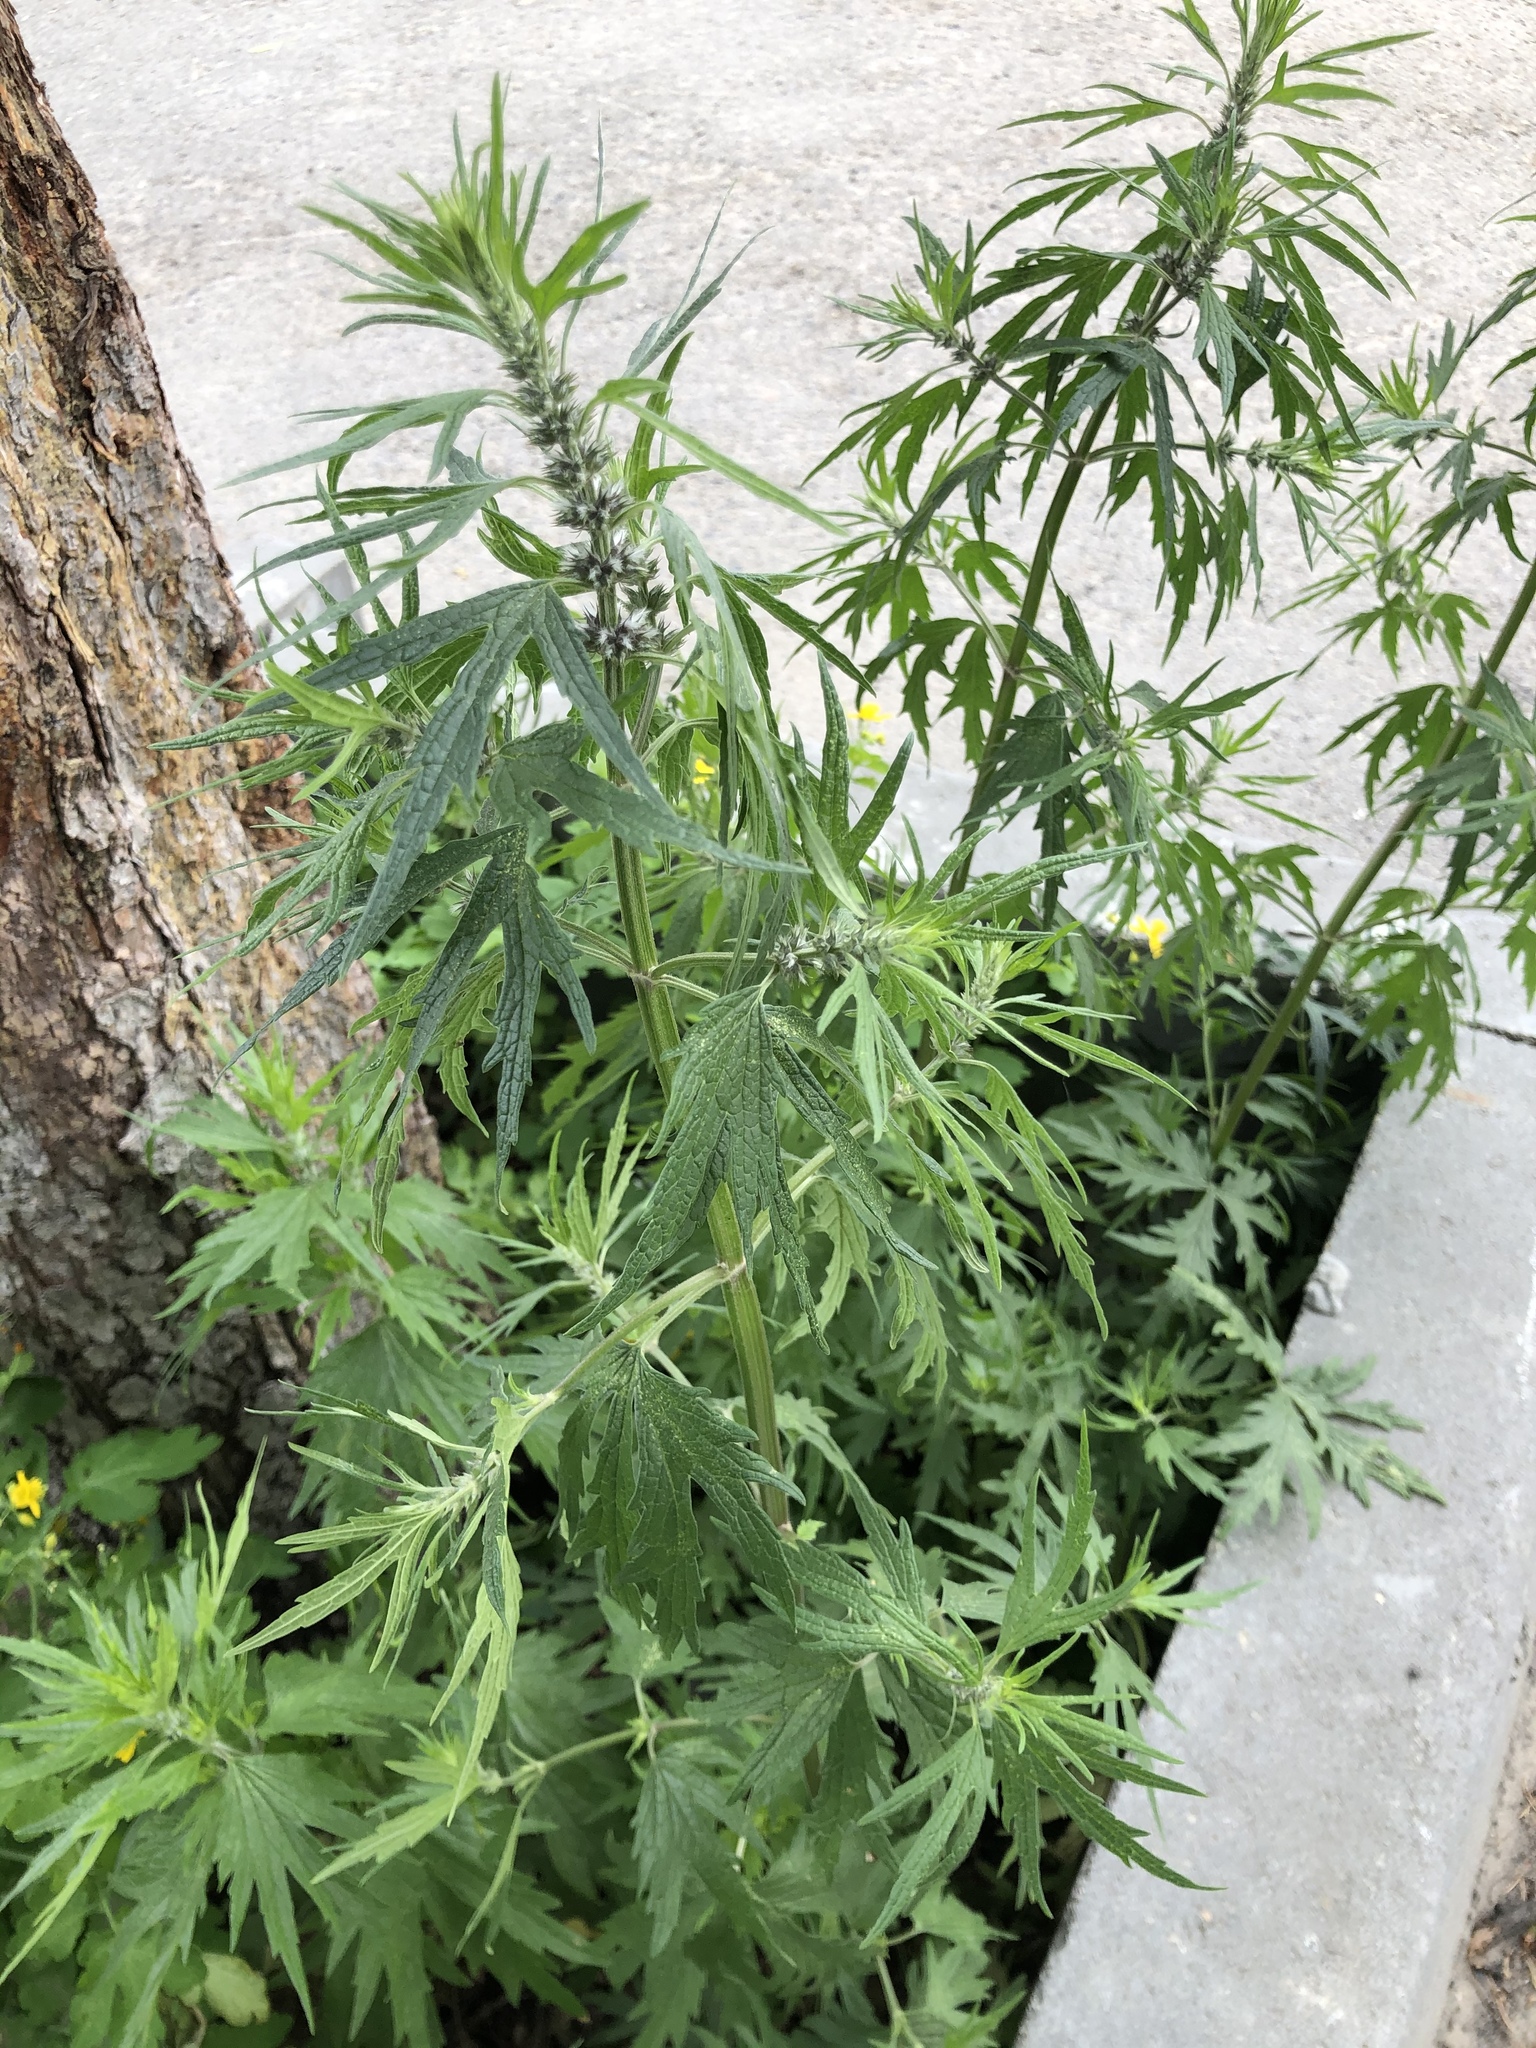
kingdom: Plantae
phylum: Tracheophyta
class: Magnoliopsida
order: Lamiales
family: Lamiaceae
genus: Leonurus
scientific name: Leonurus quinquelobatus
